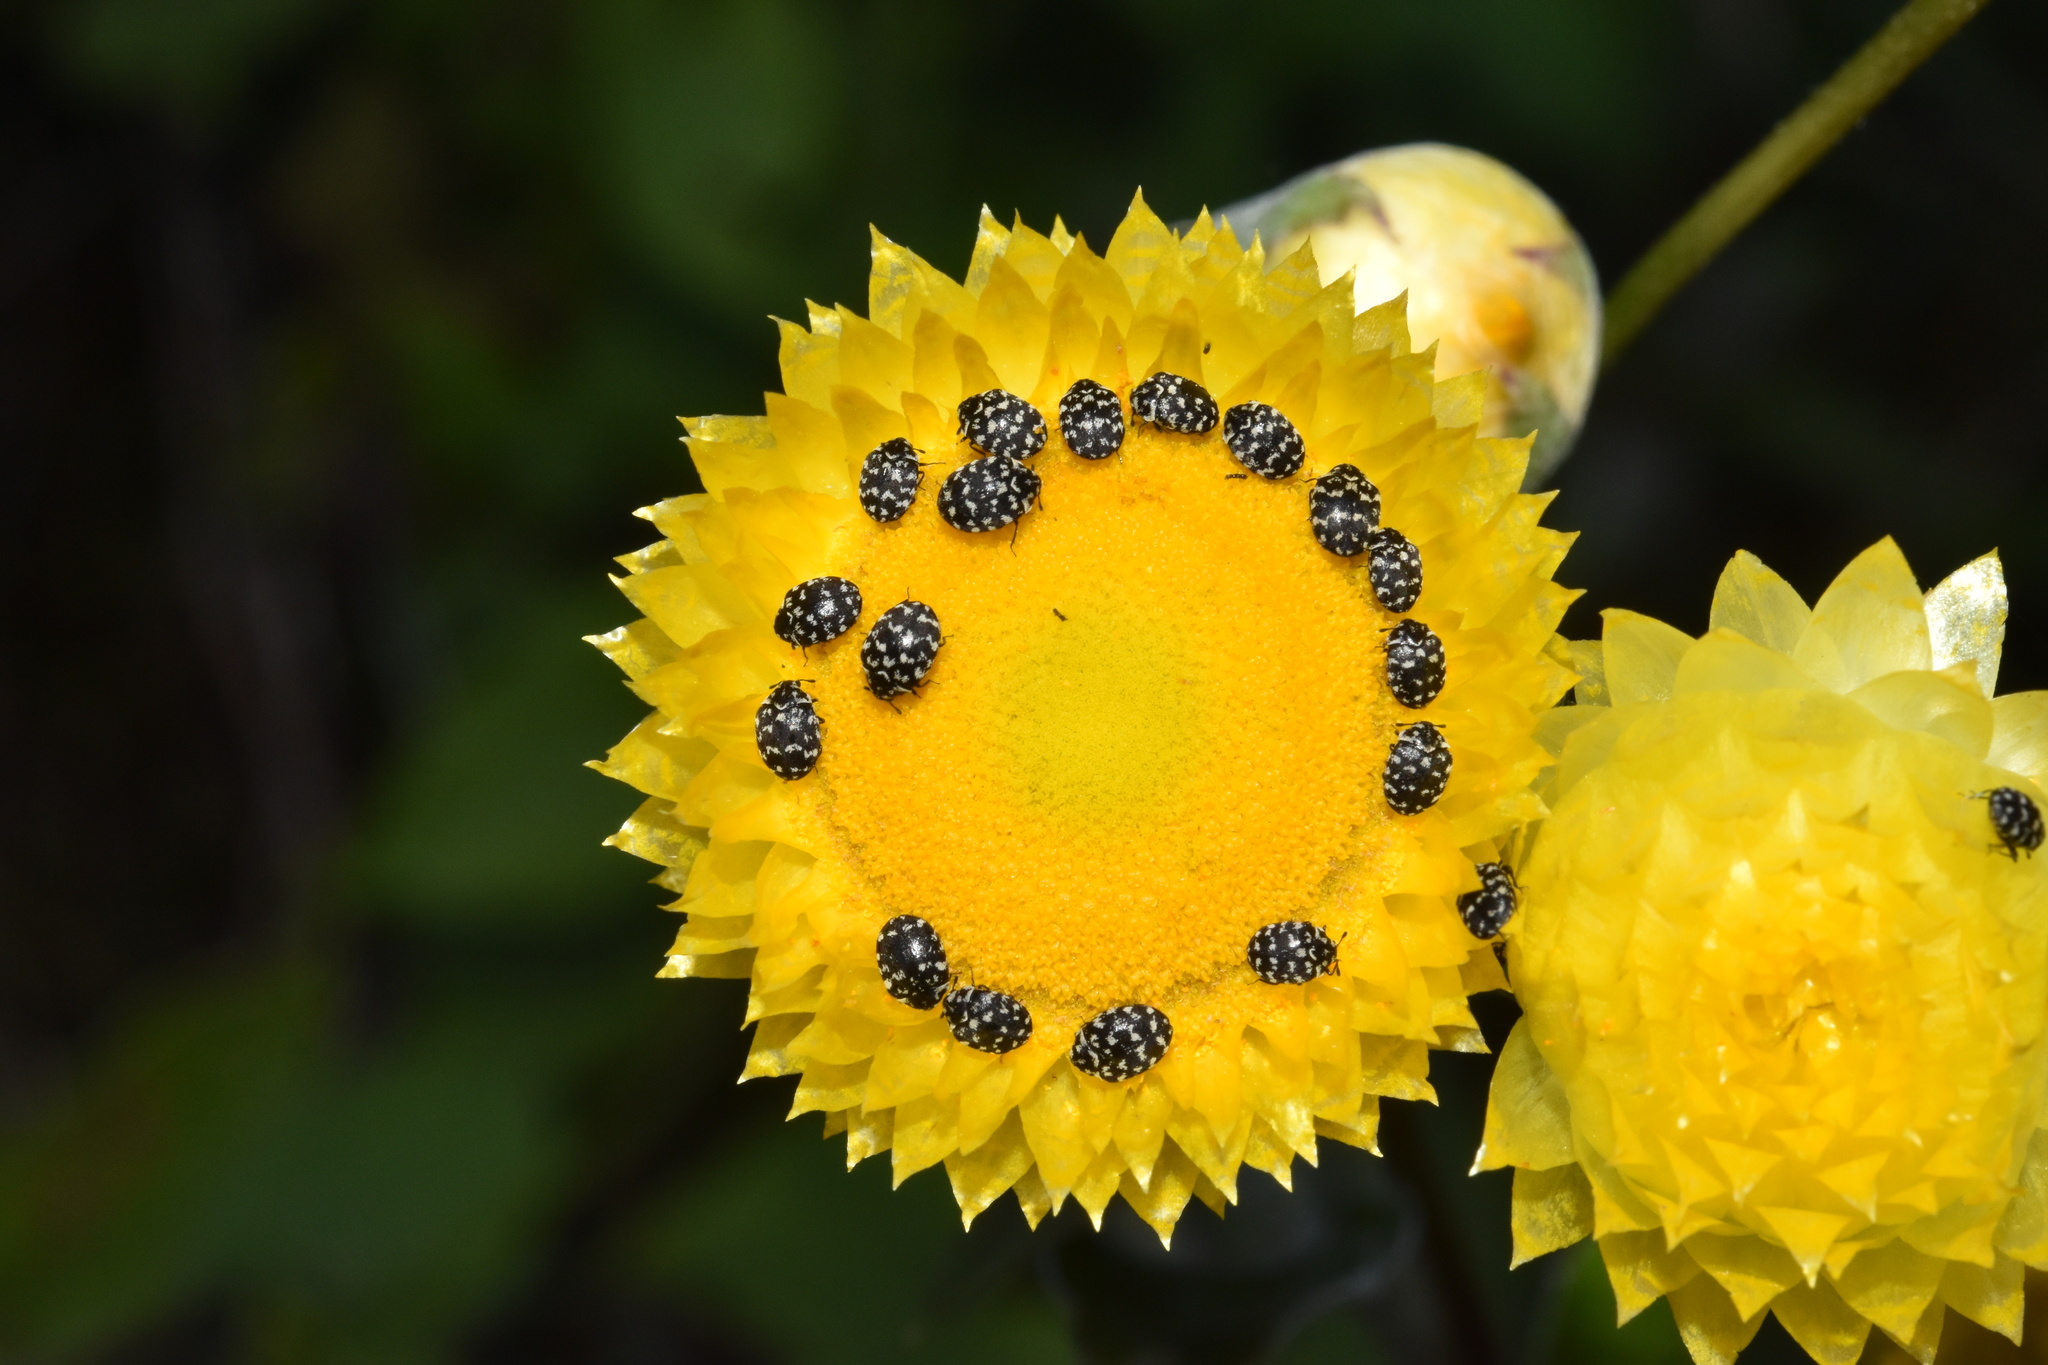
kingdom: Animalia
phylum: Arthropoda
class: Insecta
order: Coleoptera
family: Dermestidae
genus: Anthrenus
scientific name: Anthrenus
